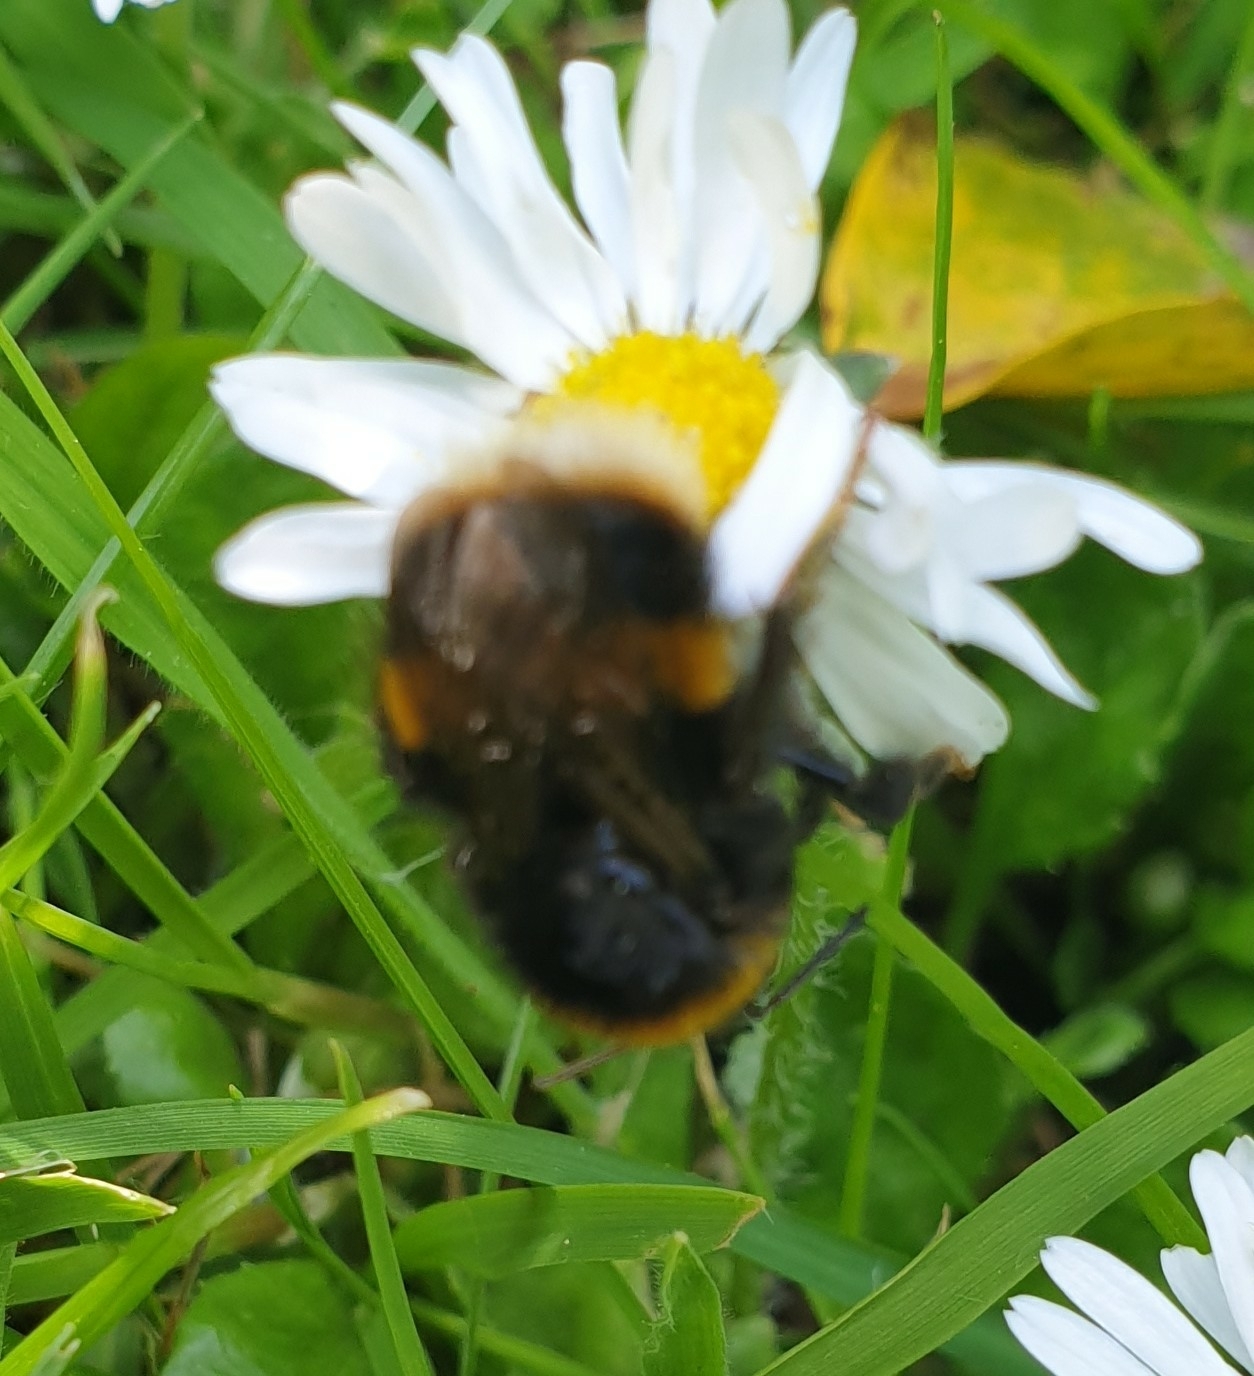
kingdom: Animalia
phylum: Arthropoda
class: Insecta
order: Hymenoptera
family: Apidae
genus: Bombus
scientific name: Bombus terrestris
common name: Buff-tailed bumblebee
